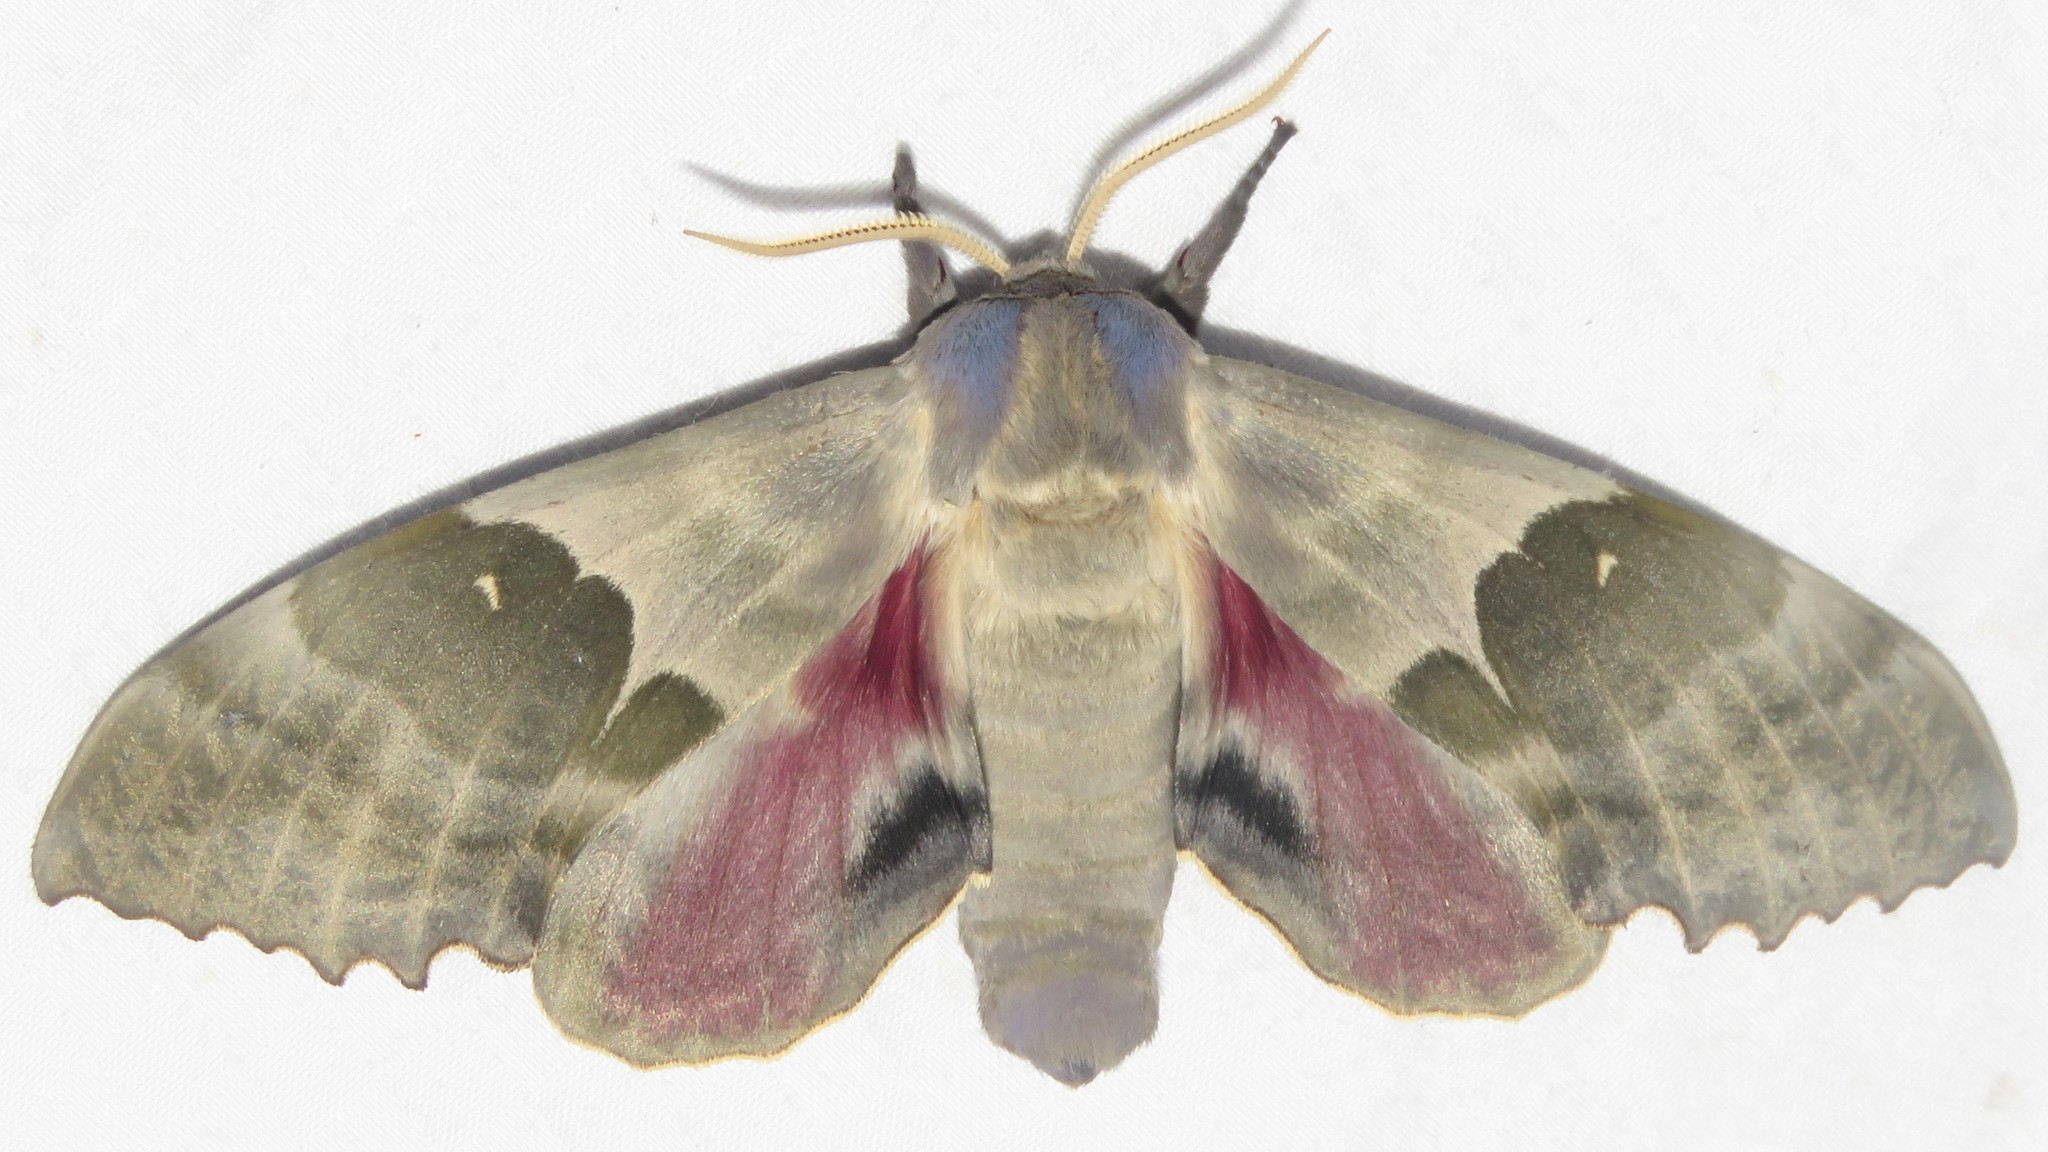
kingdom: Animalia
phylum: Arthropoda
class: Insecta
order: Lepidoptera
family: Sphingidae
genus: Pachysphinx
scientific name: Pachysphinx modesta
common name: Big poplar sphinx
